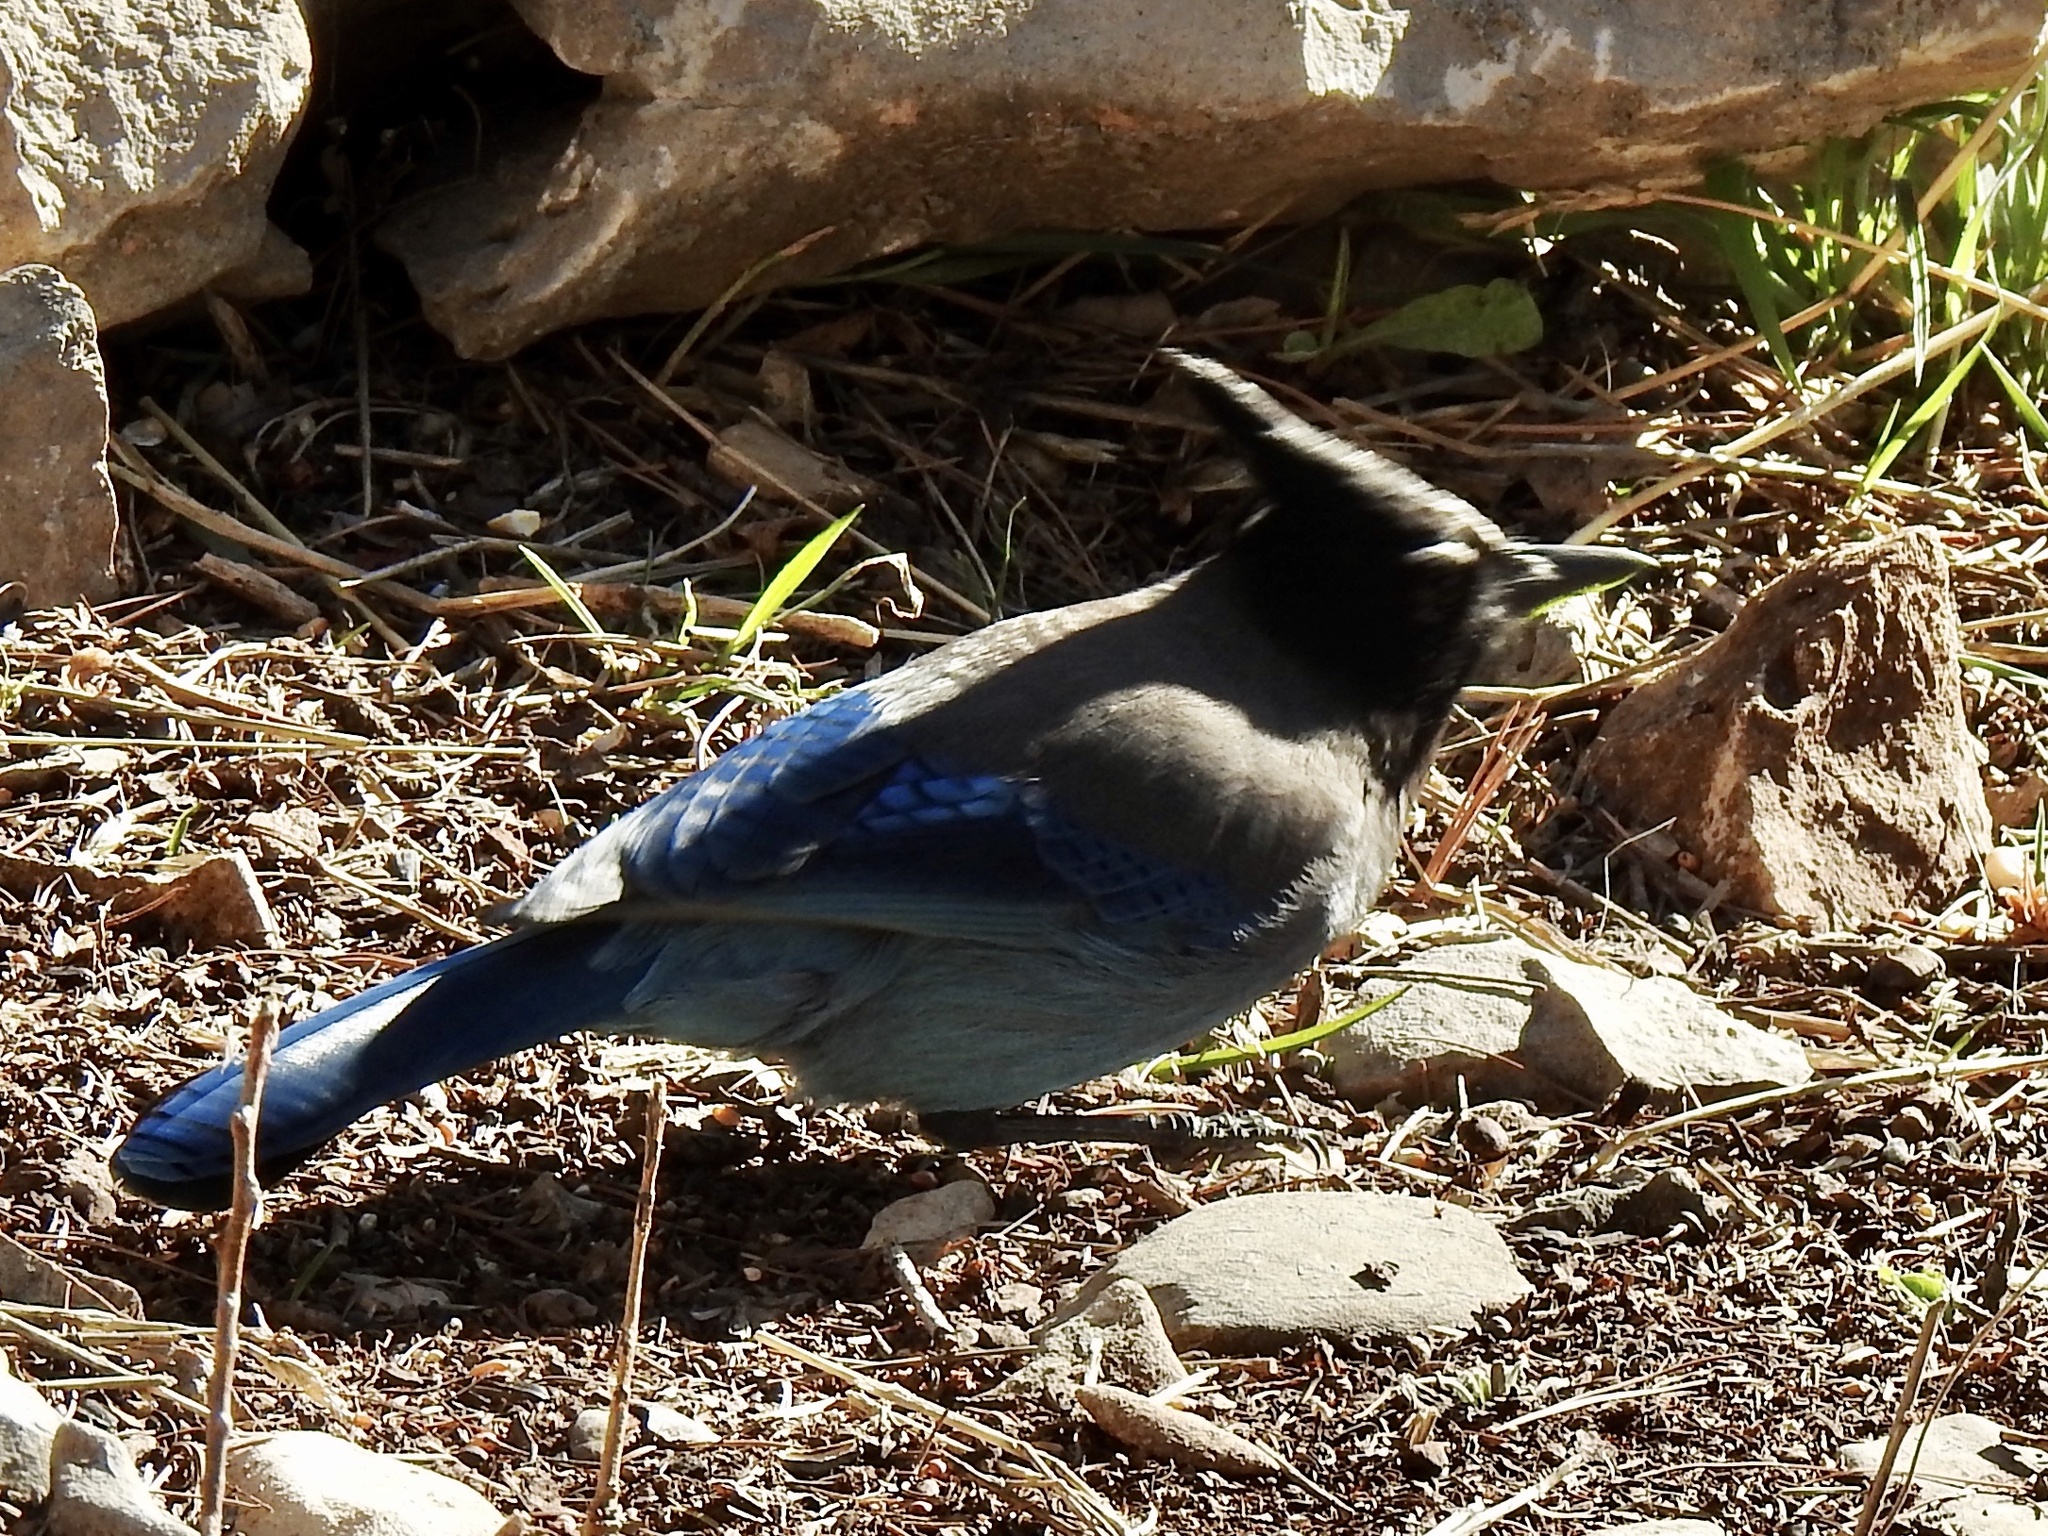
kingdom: Animalia
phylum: Chordata
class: Aves
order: Passeriformes
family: Corvidae
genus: Cyanocitta
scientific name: Cyanocitta stelleri
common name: Steller's jay
